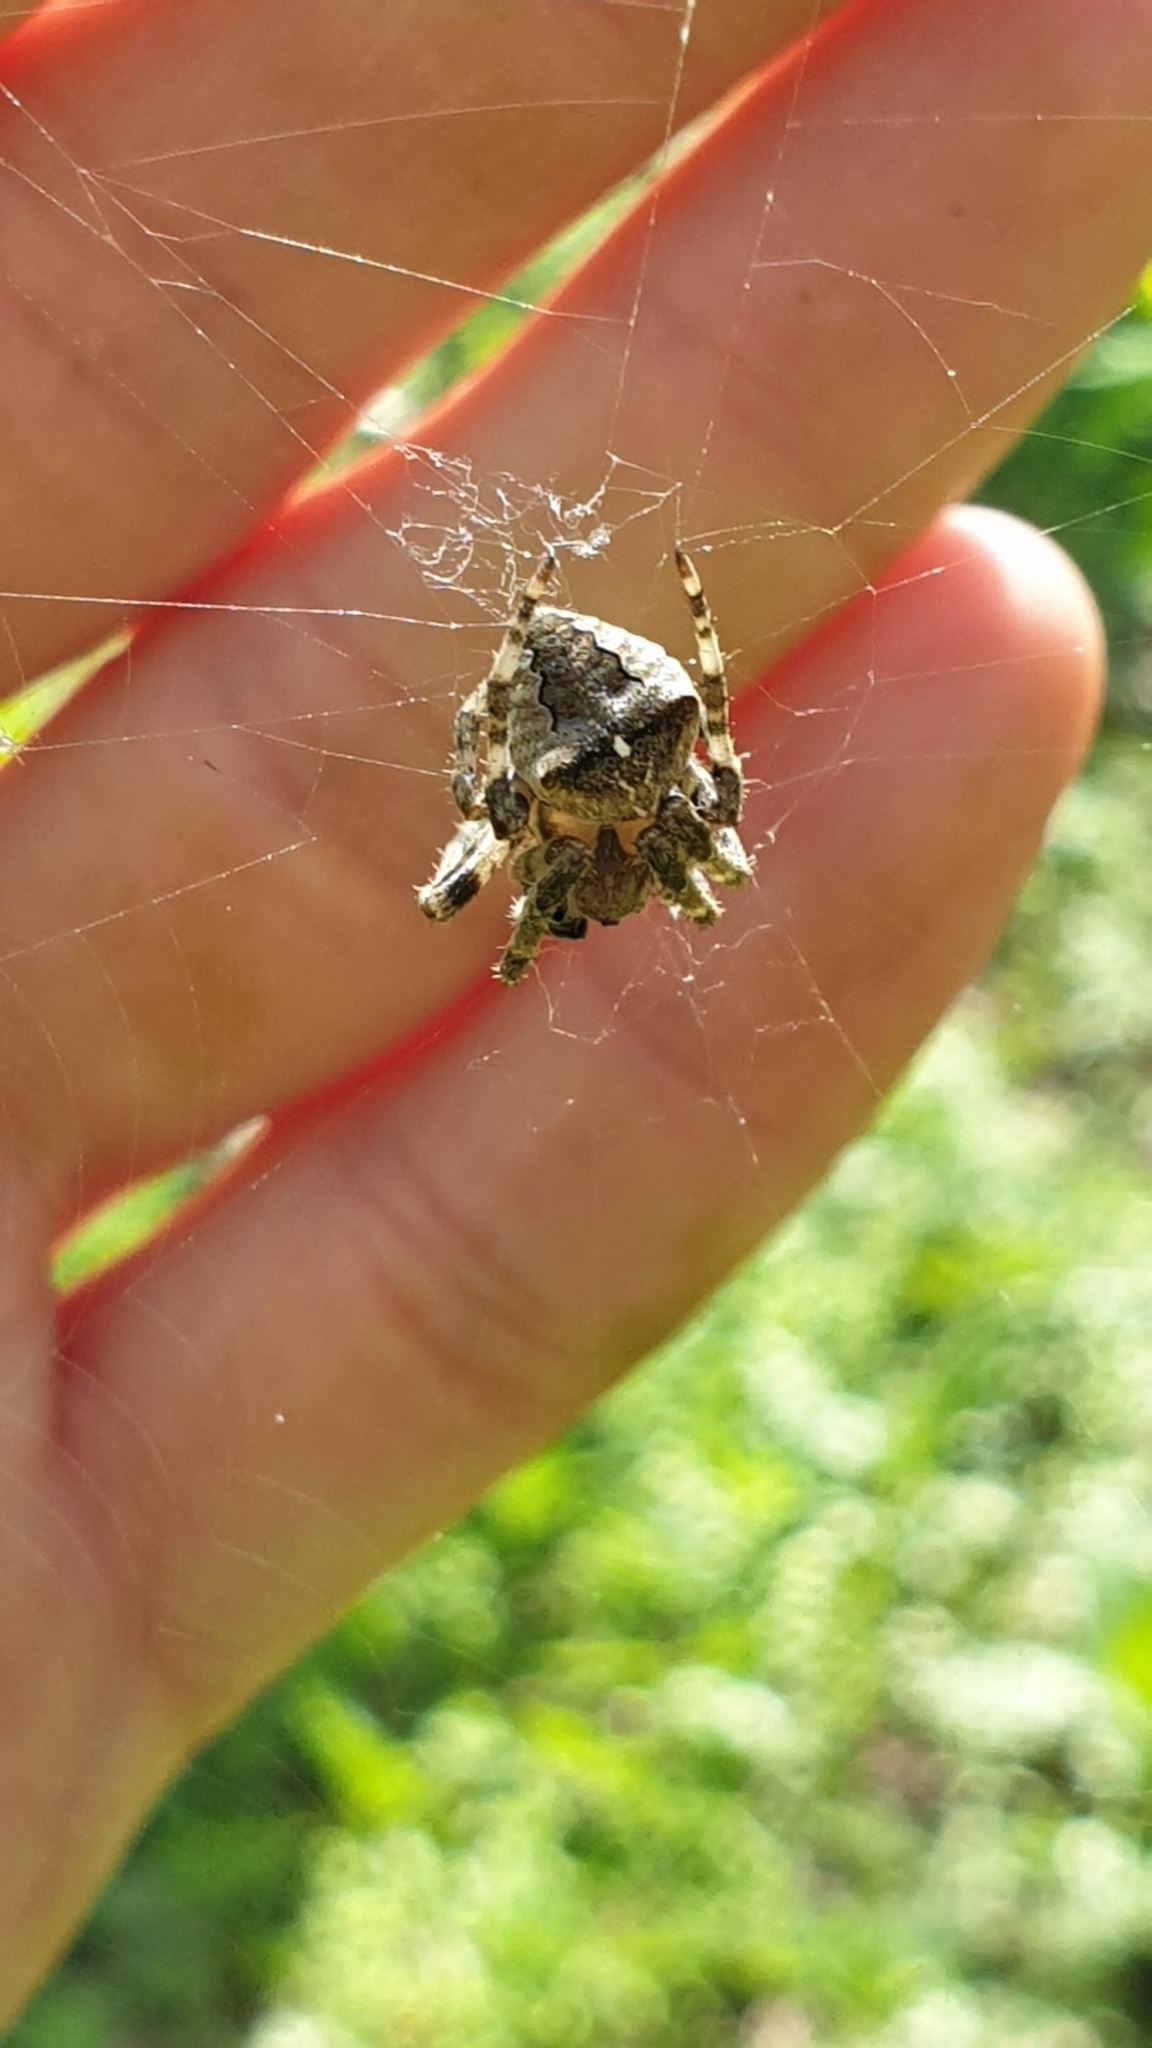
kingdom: Animalia
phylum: Arthropoda
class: Arachnida
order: Araneae
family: Araneidae
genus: Araneus
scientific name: Araneus angulatus
